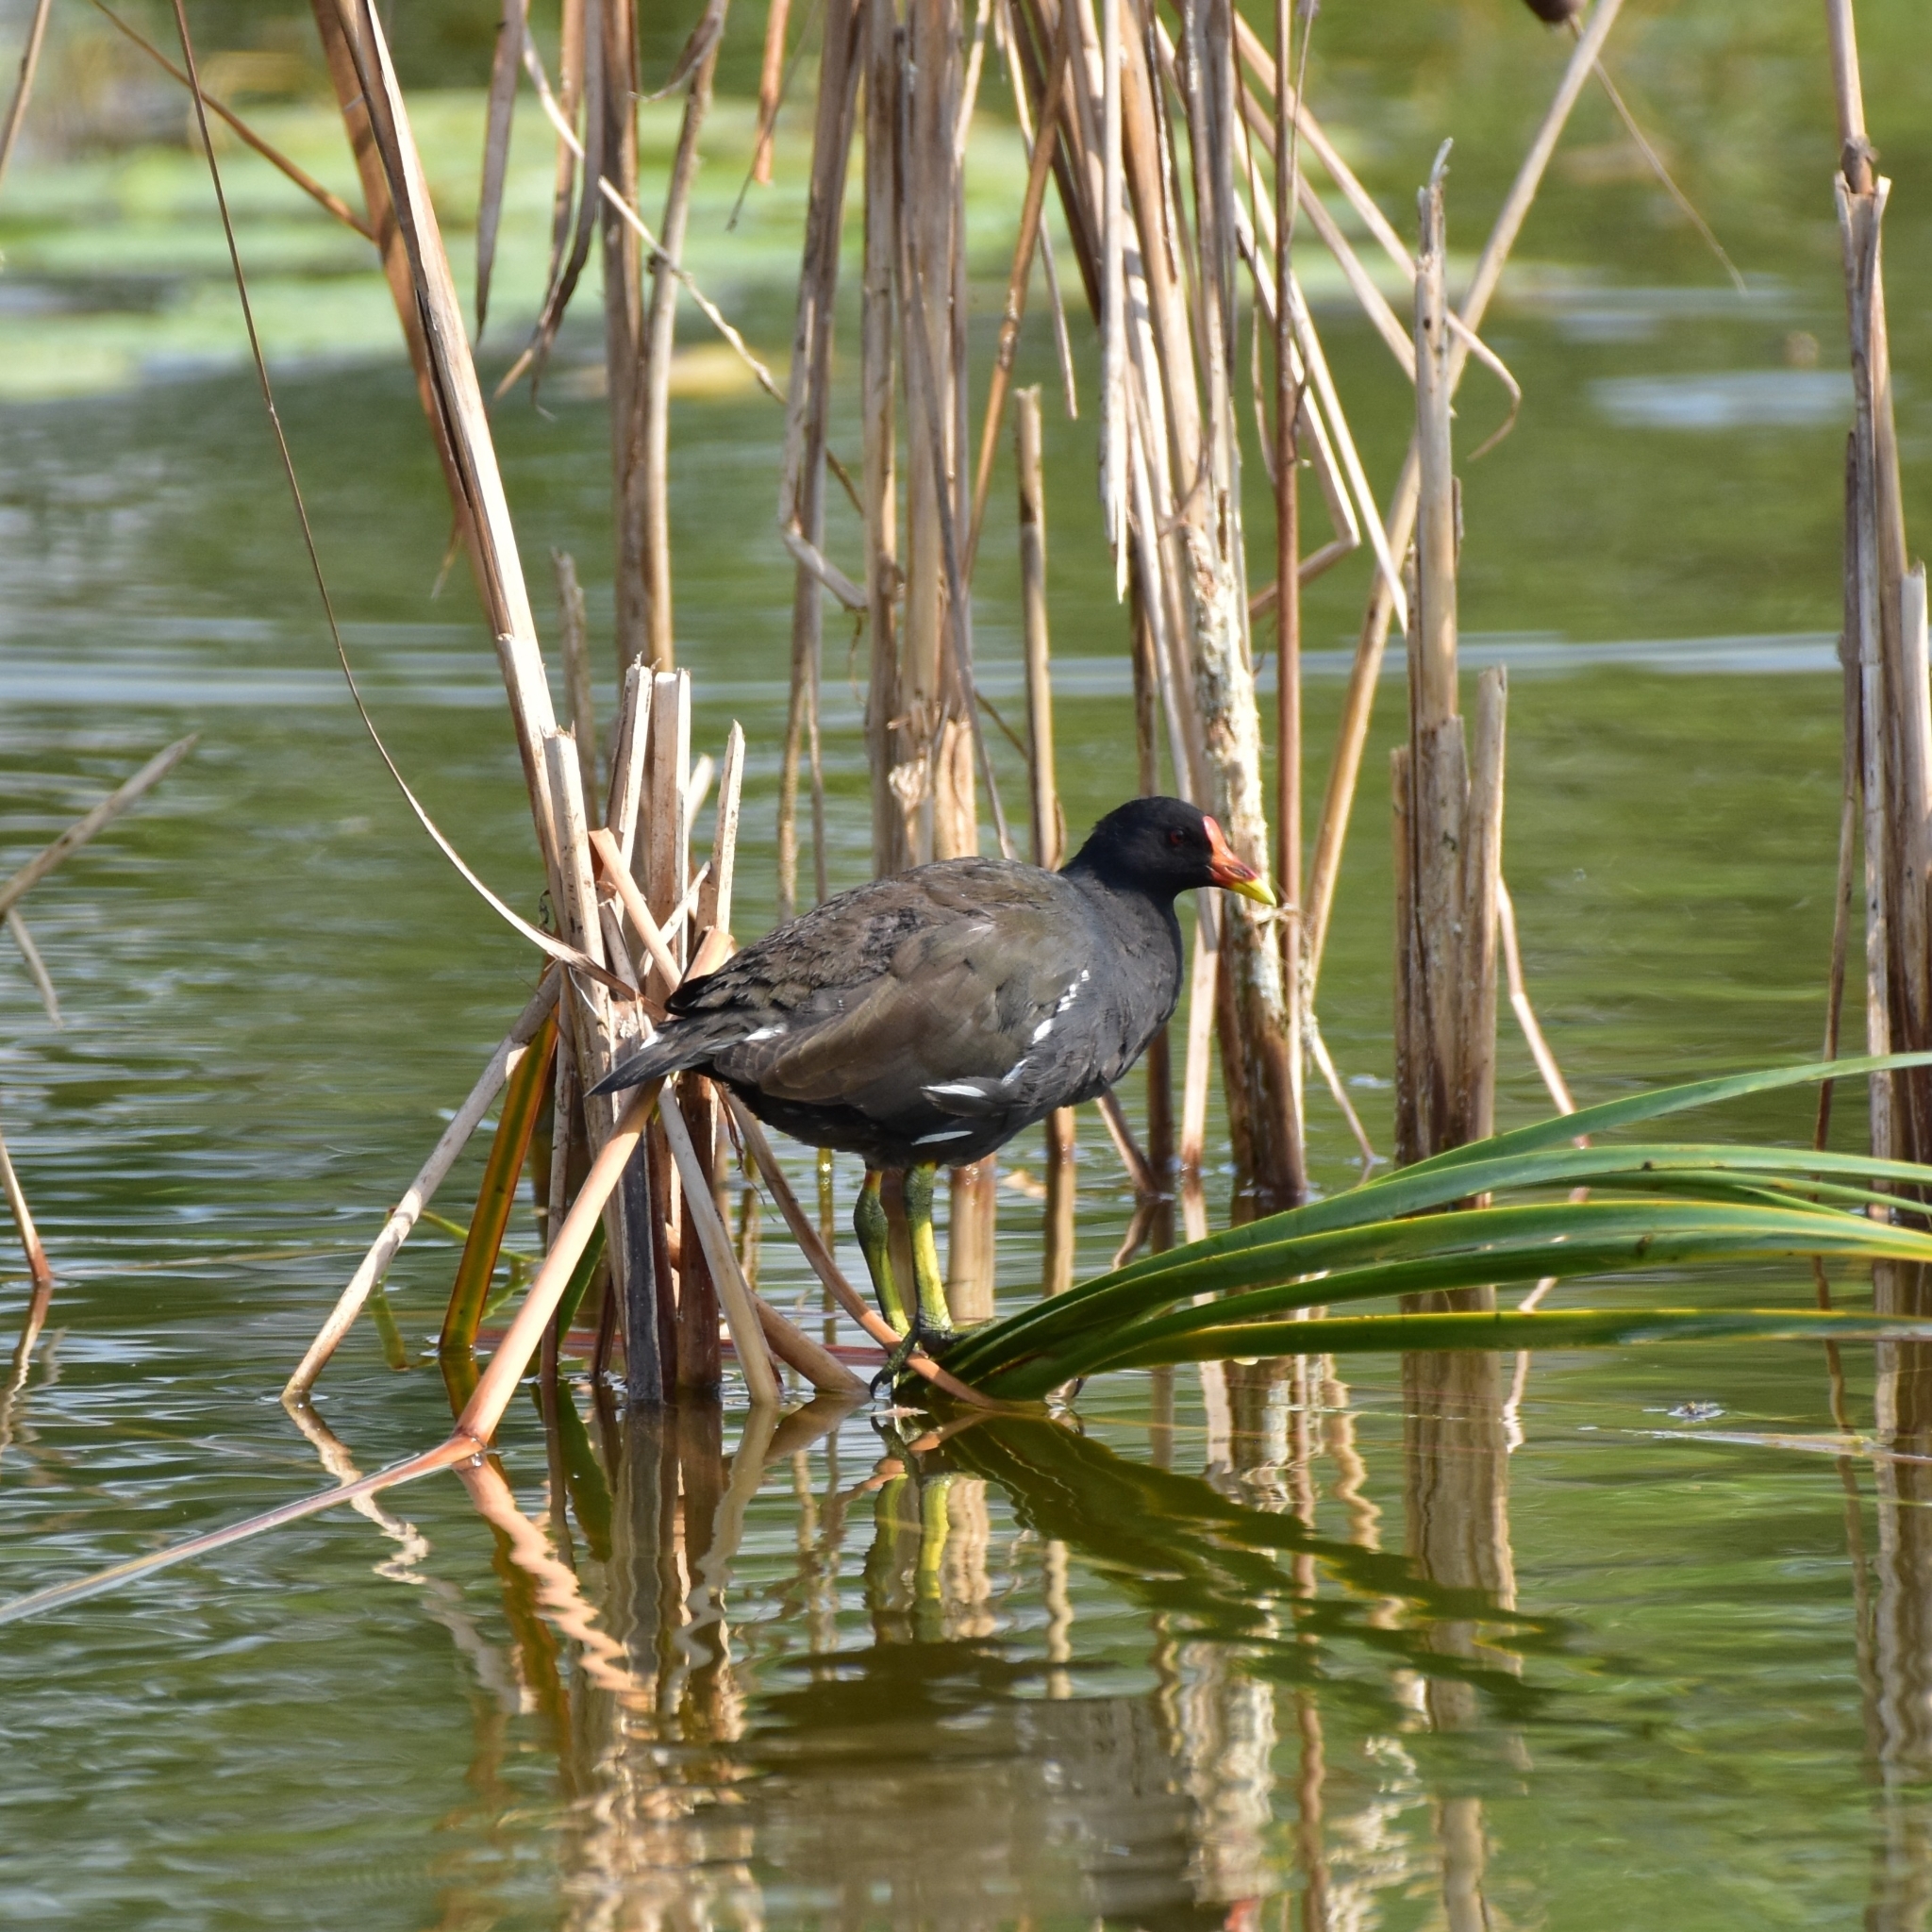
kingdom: Animalia
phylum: Chordata
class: Aves
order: Gruiformes
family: Rallidae
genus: Gallinula
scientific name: Gallinula chloropus
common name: Common moorhen
